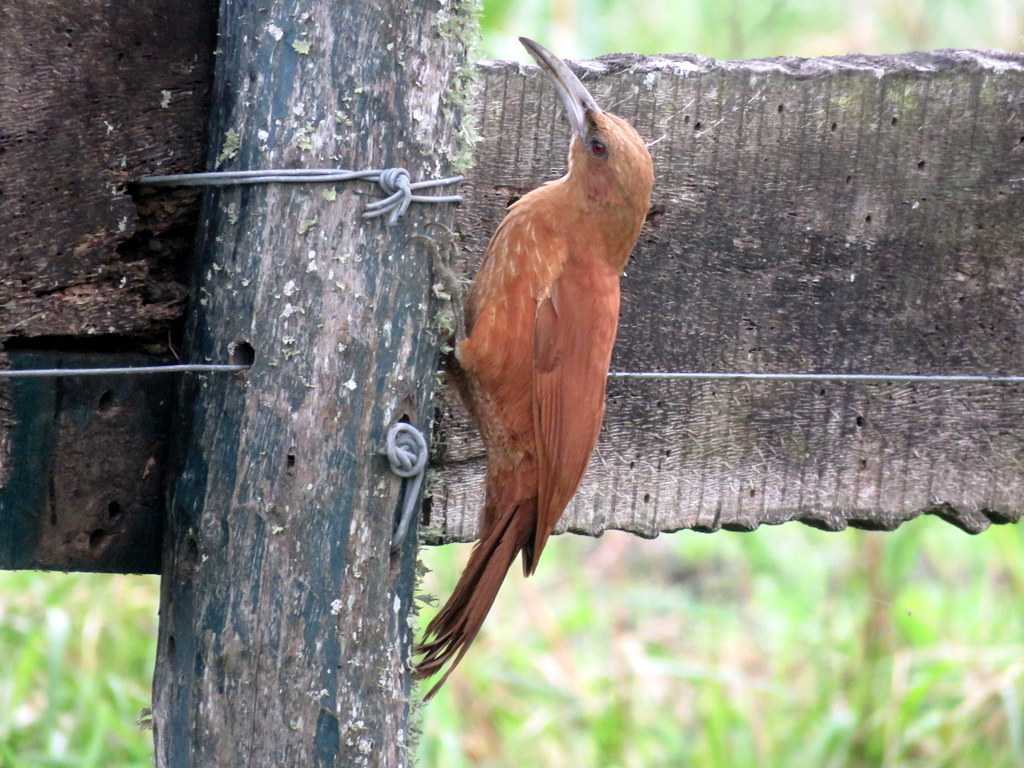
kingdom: Animalia
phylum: Chordata
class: Aves
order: Passeriformes
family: Furnariidae
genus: Xiphocolaptes
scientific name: Xiphocolaptes major
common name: Great rufous woodcreeper
